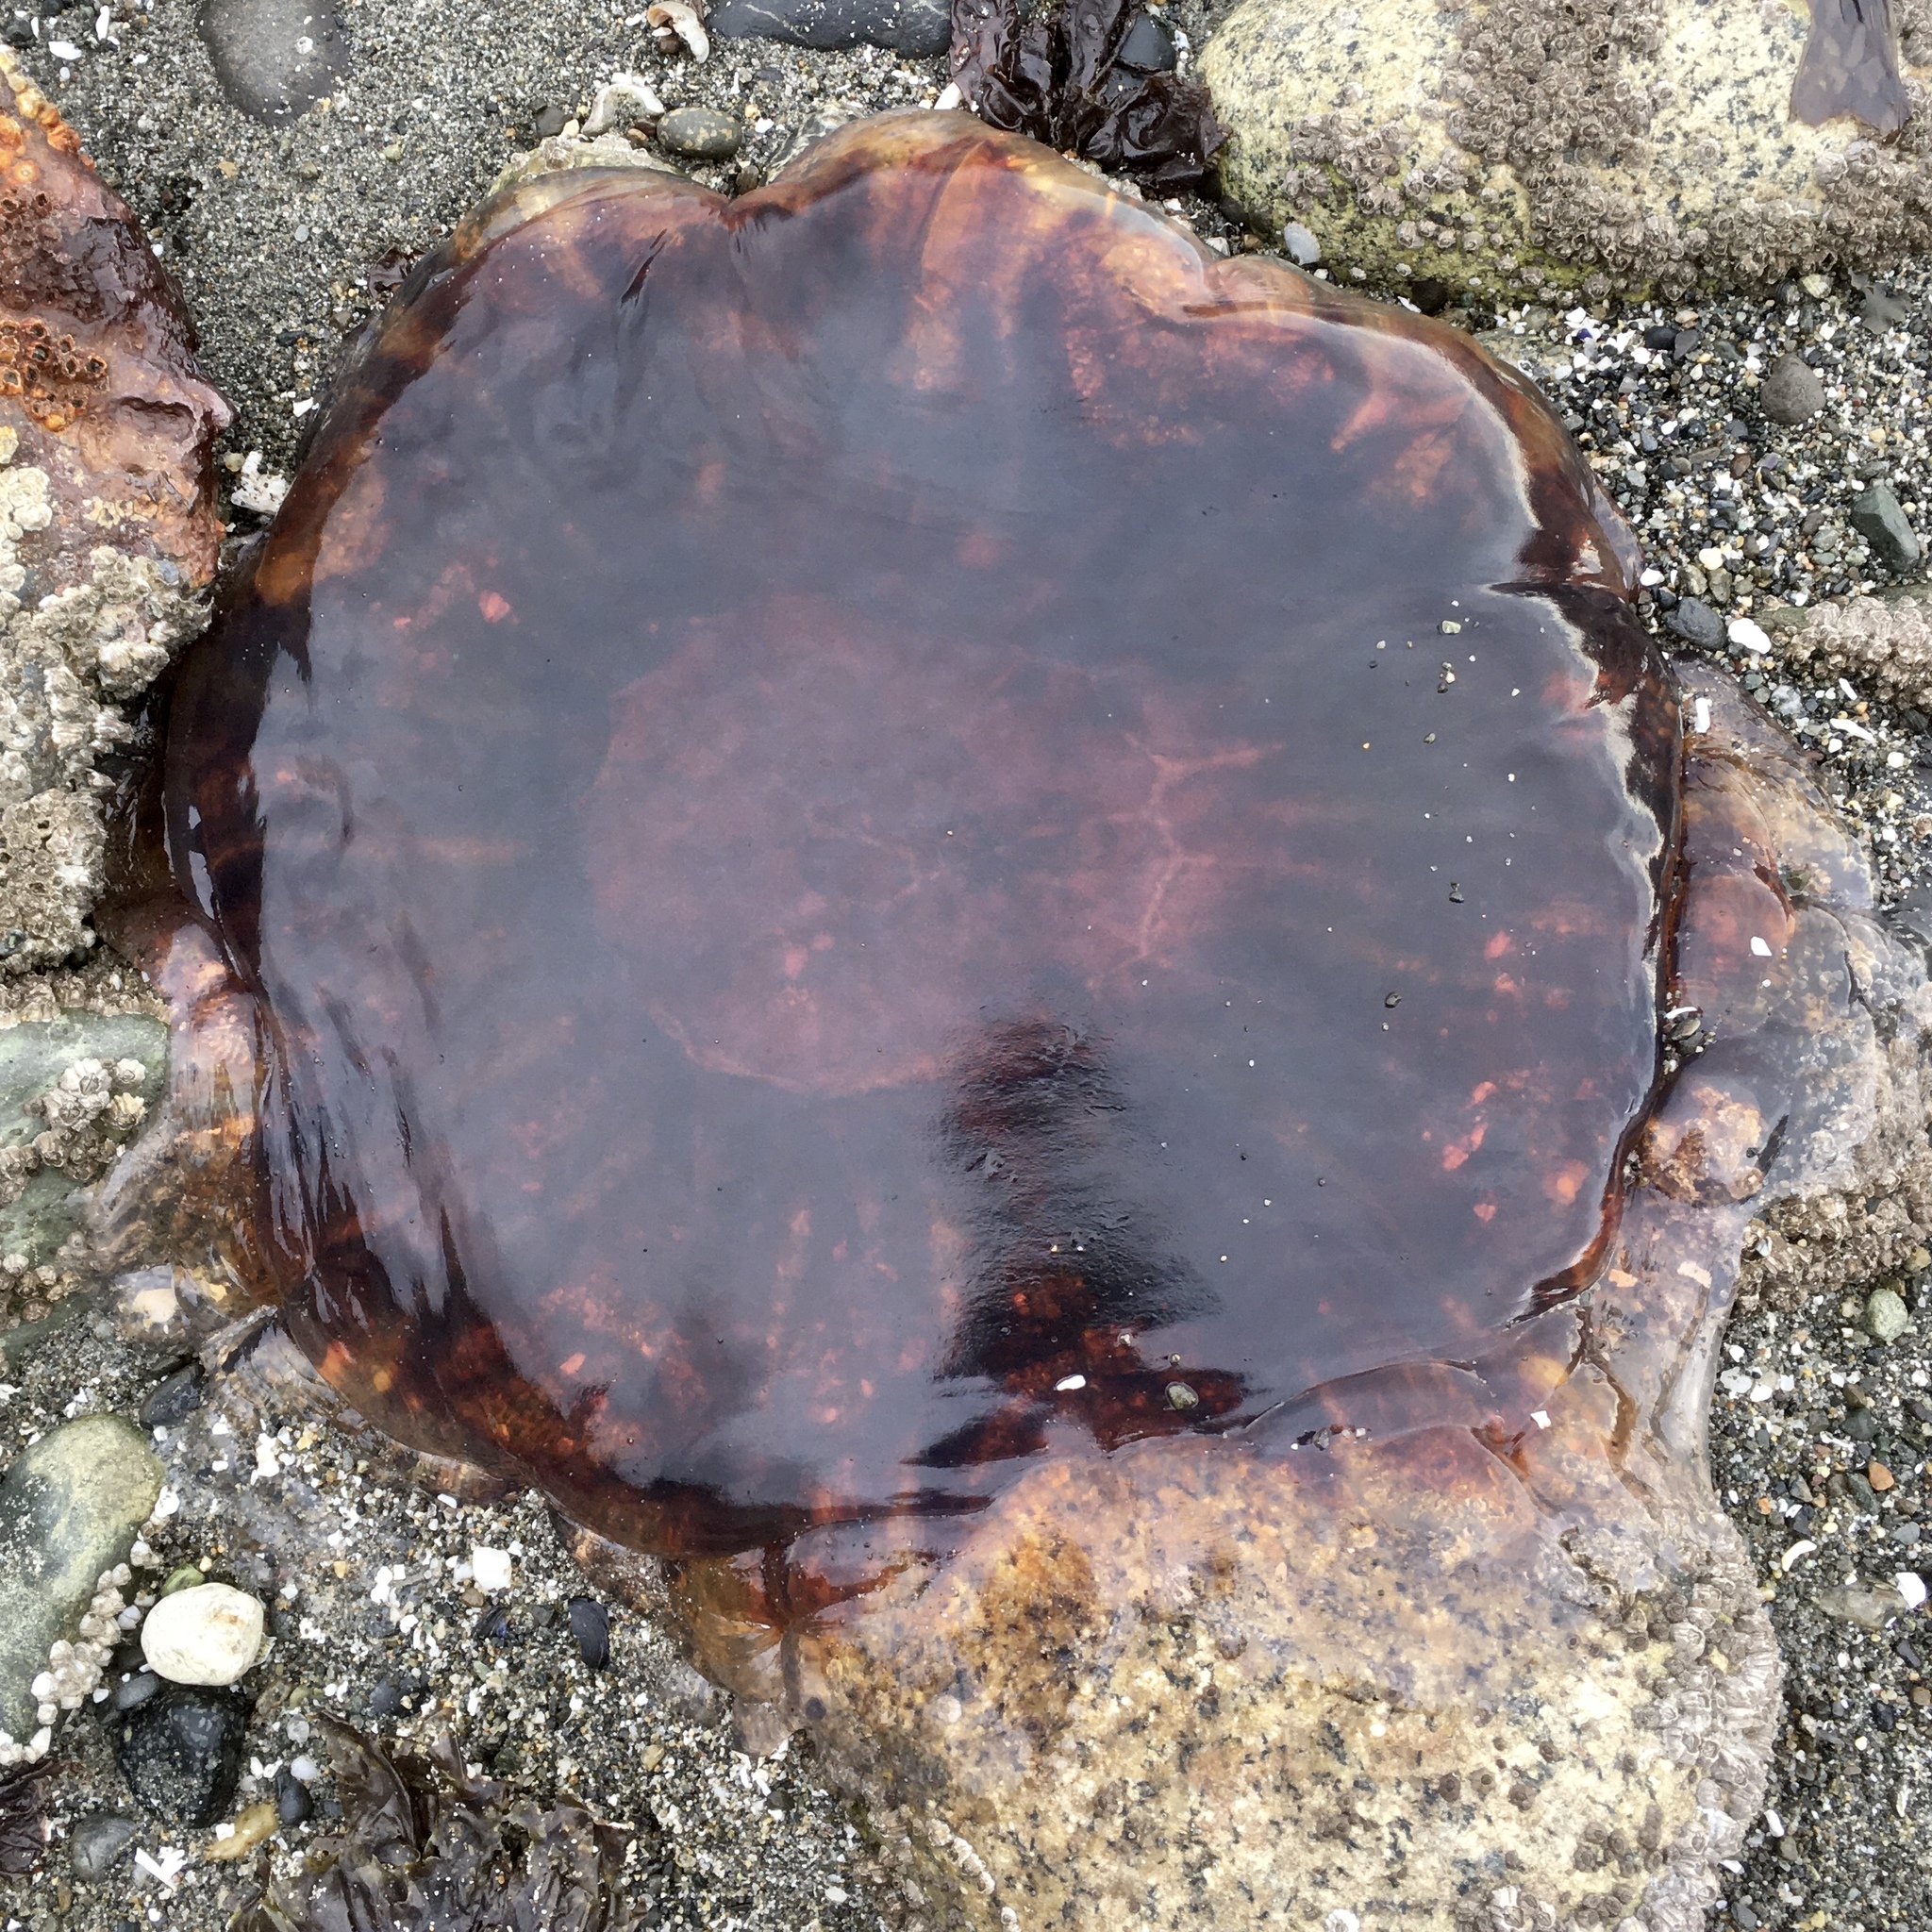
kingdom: Animalia
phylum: Cnidaria
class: Scyphozoa
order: Semaeostomeae
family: Cyaneidae
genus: Cyanea
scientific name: Cyanea ferruginea
